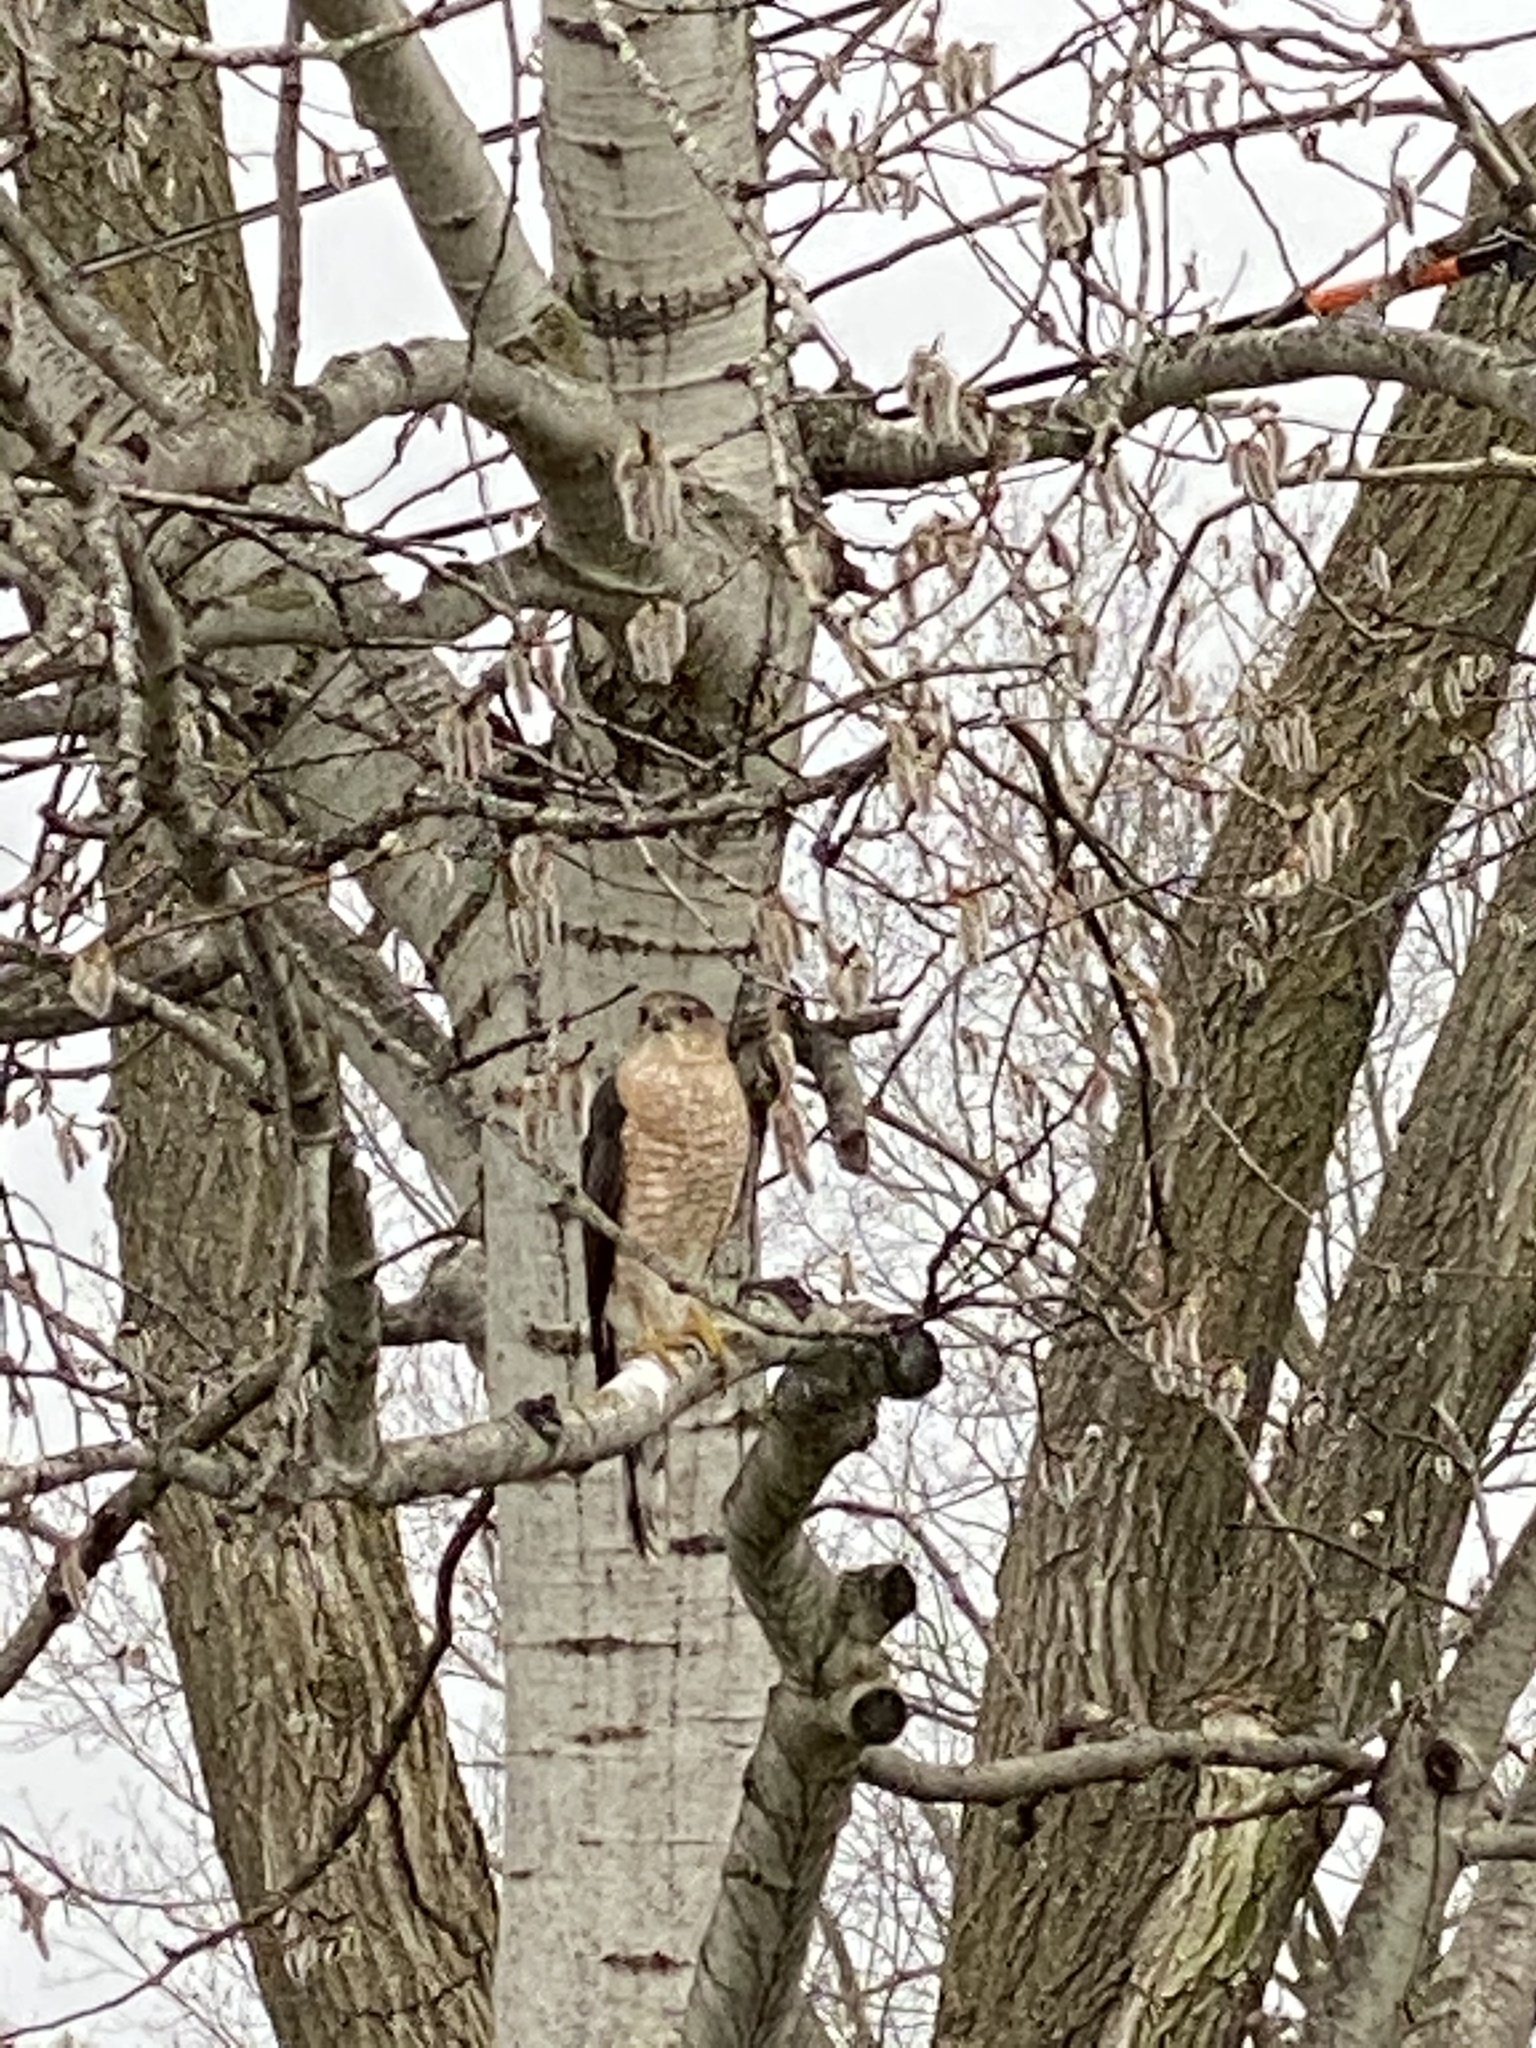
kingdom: Animalia
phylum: Chordata
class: Aves
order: Accipitriformes
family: Accipitridae
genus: Accipiter
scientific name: Accipiter cooperii
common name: Cooper's hawk
